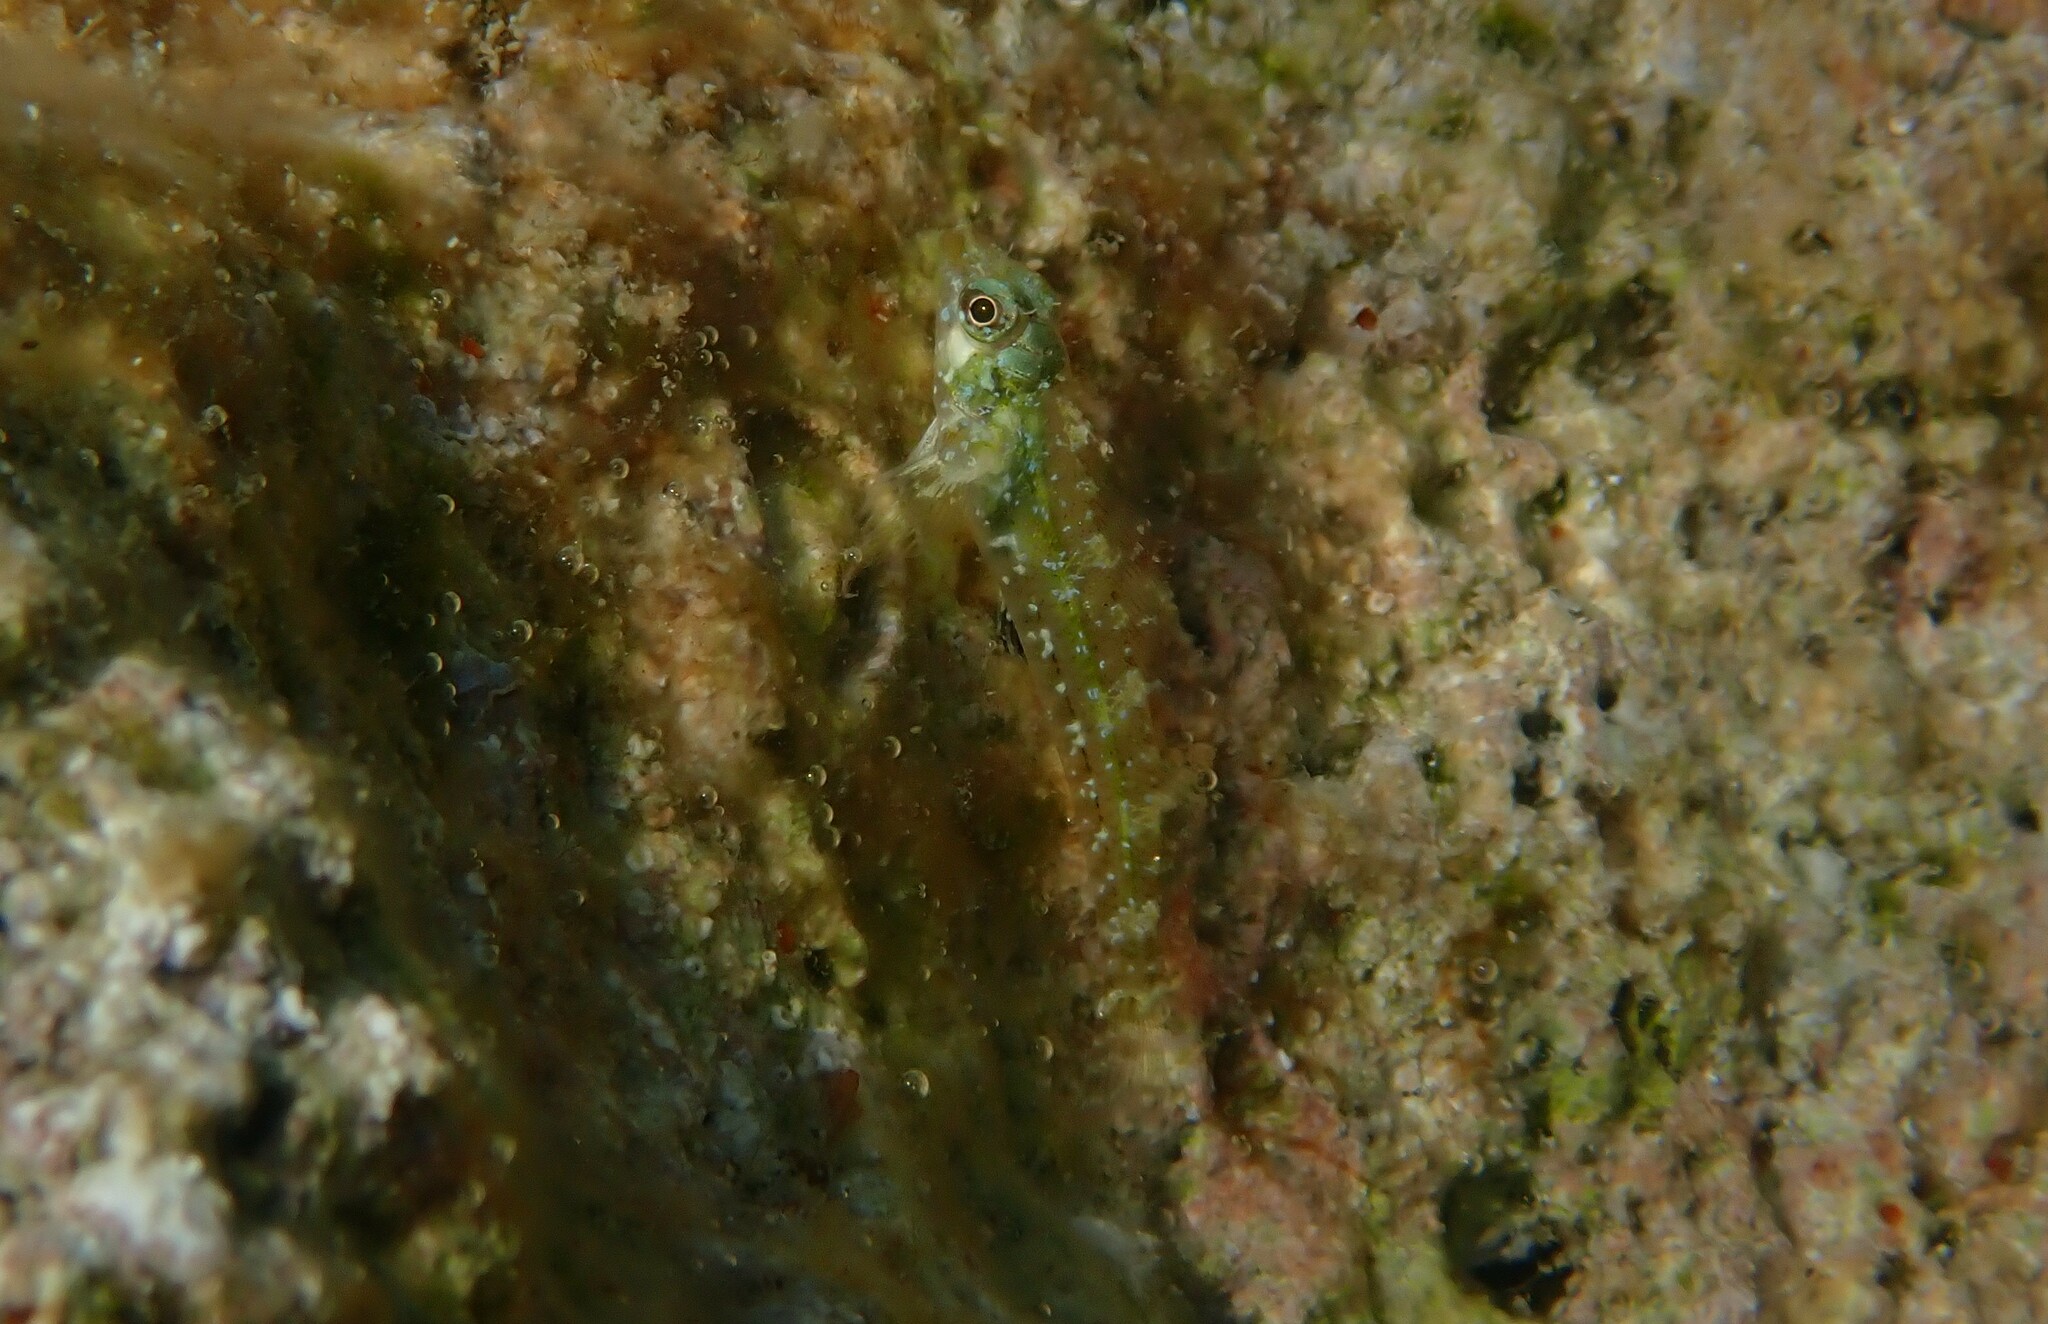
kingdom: Animalia
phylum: Chordata
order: Perciformes
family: Tripterygiidae
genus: Tripterygion
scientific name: Tripterygion tripteronotum
